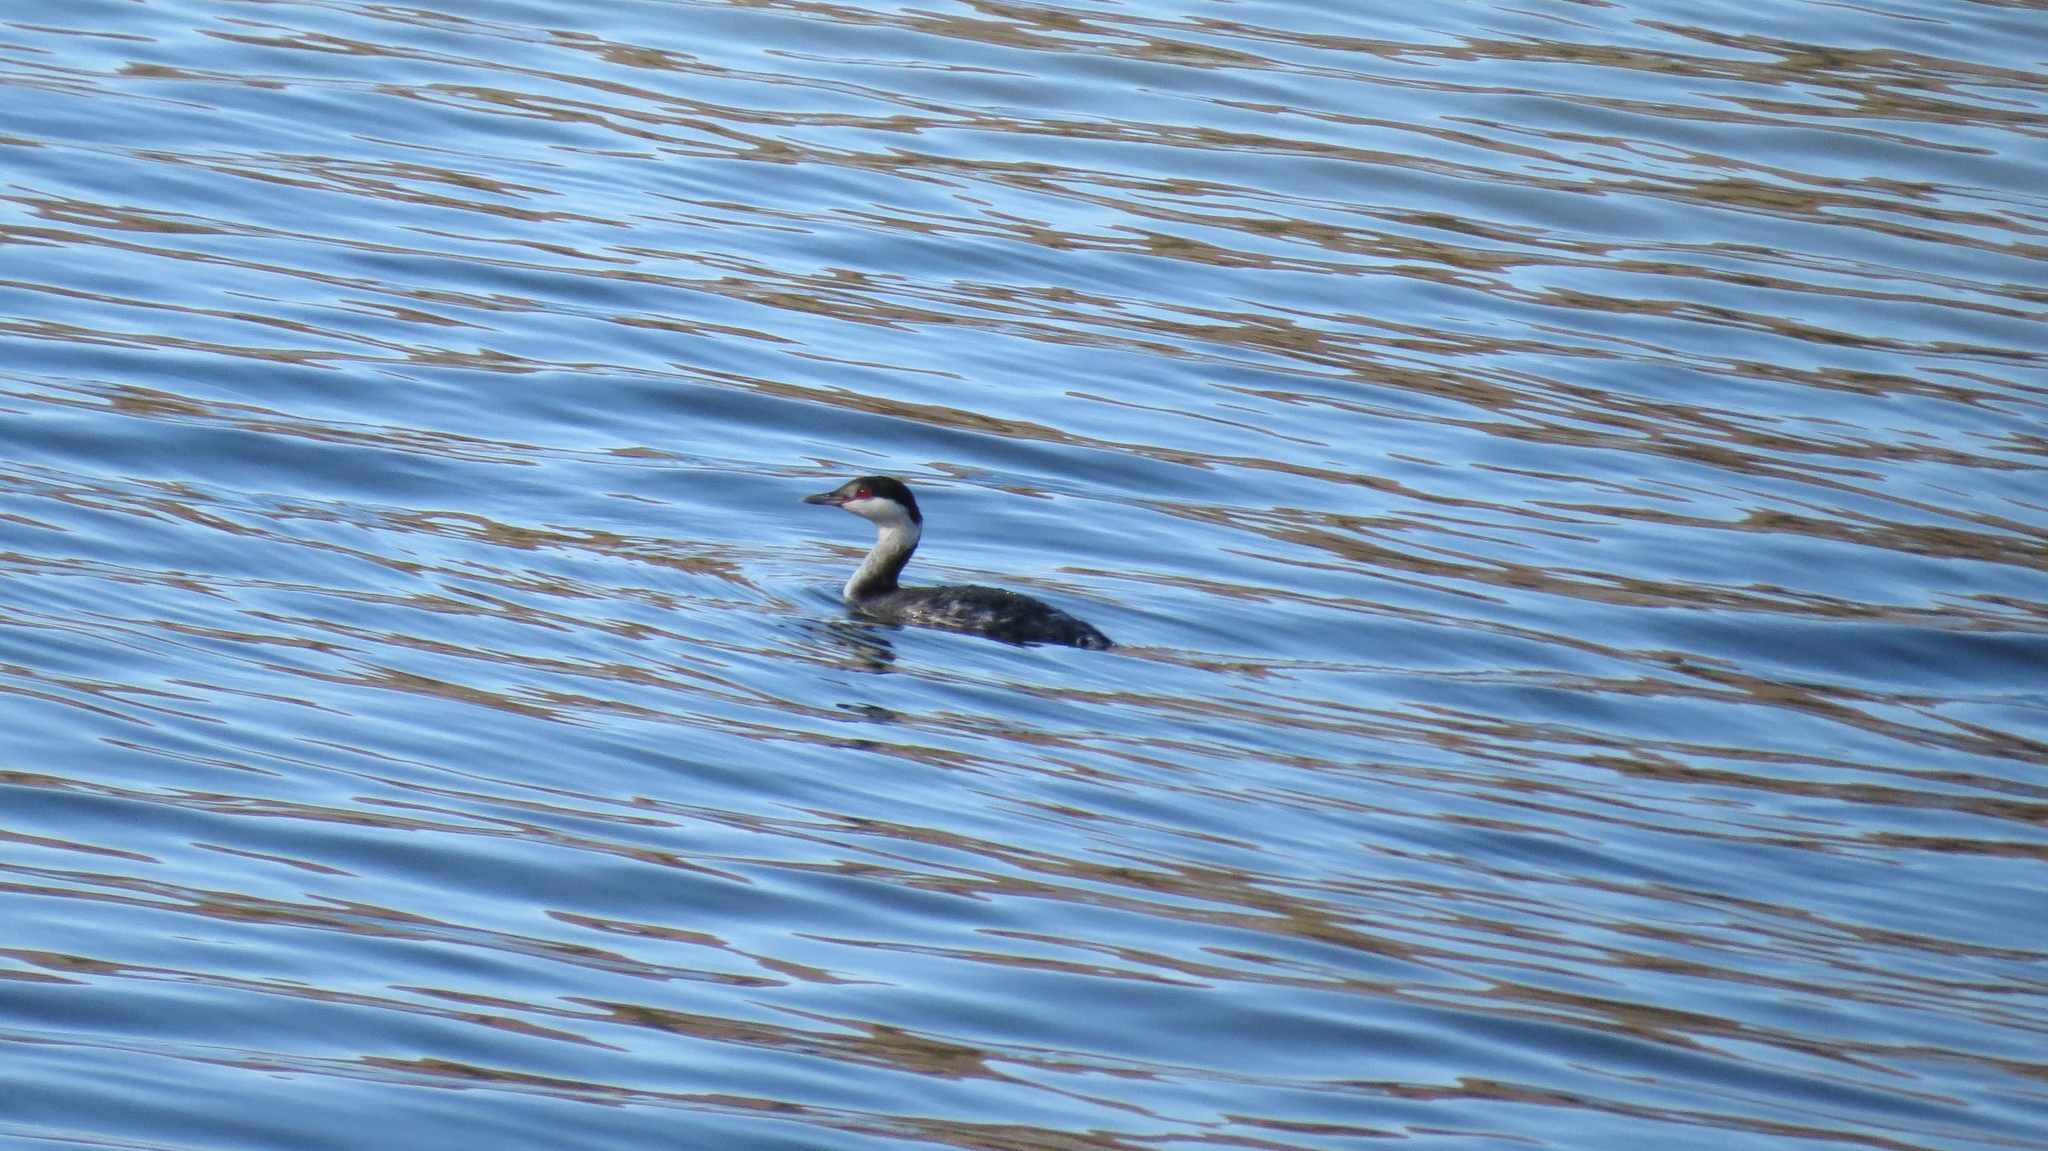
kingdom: Animalia
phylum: Chordata
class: Aves
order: Podicipediformes
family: Podicipedidae
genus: Podiceps
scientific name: Podiceps auritus
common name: Horned grebe
